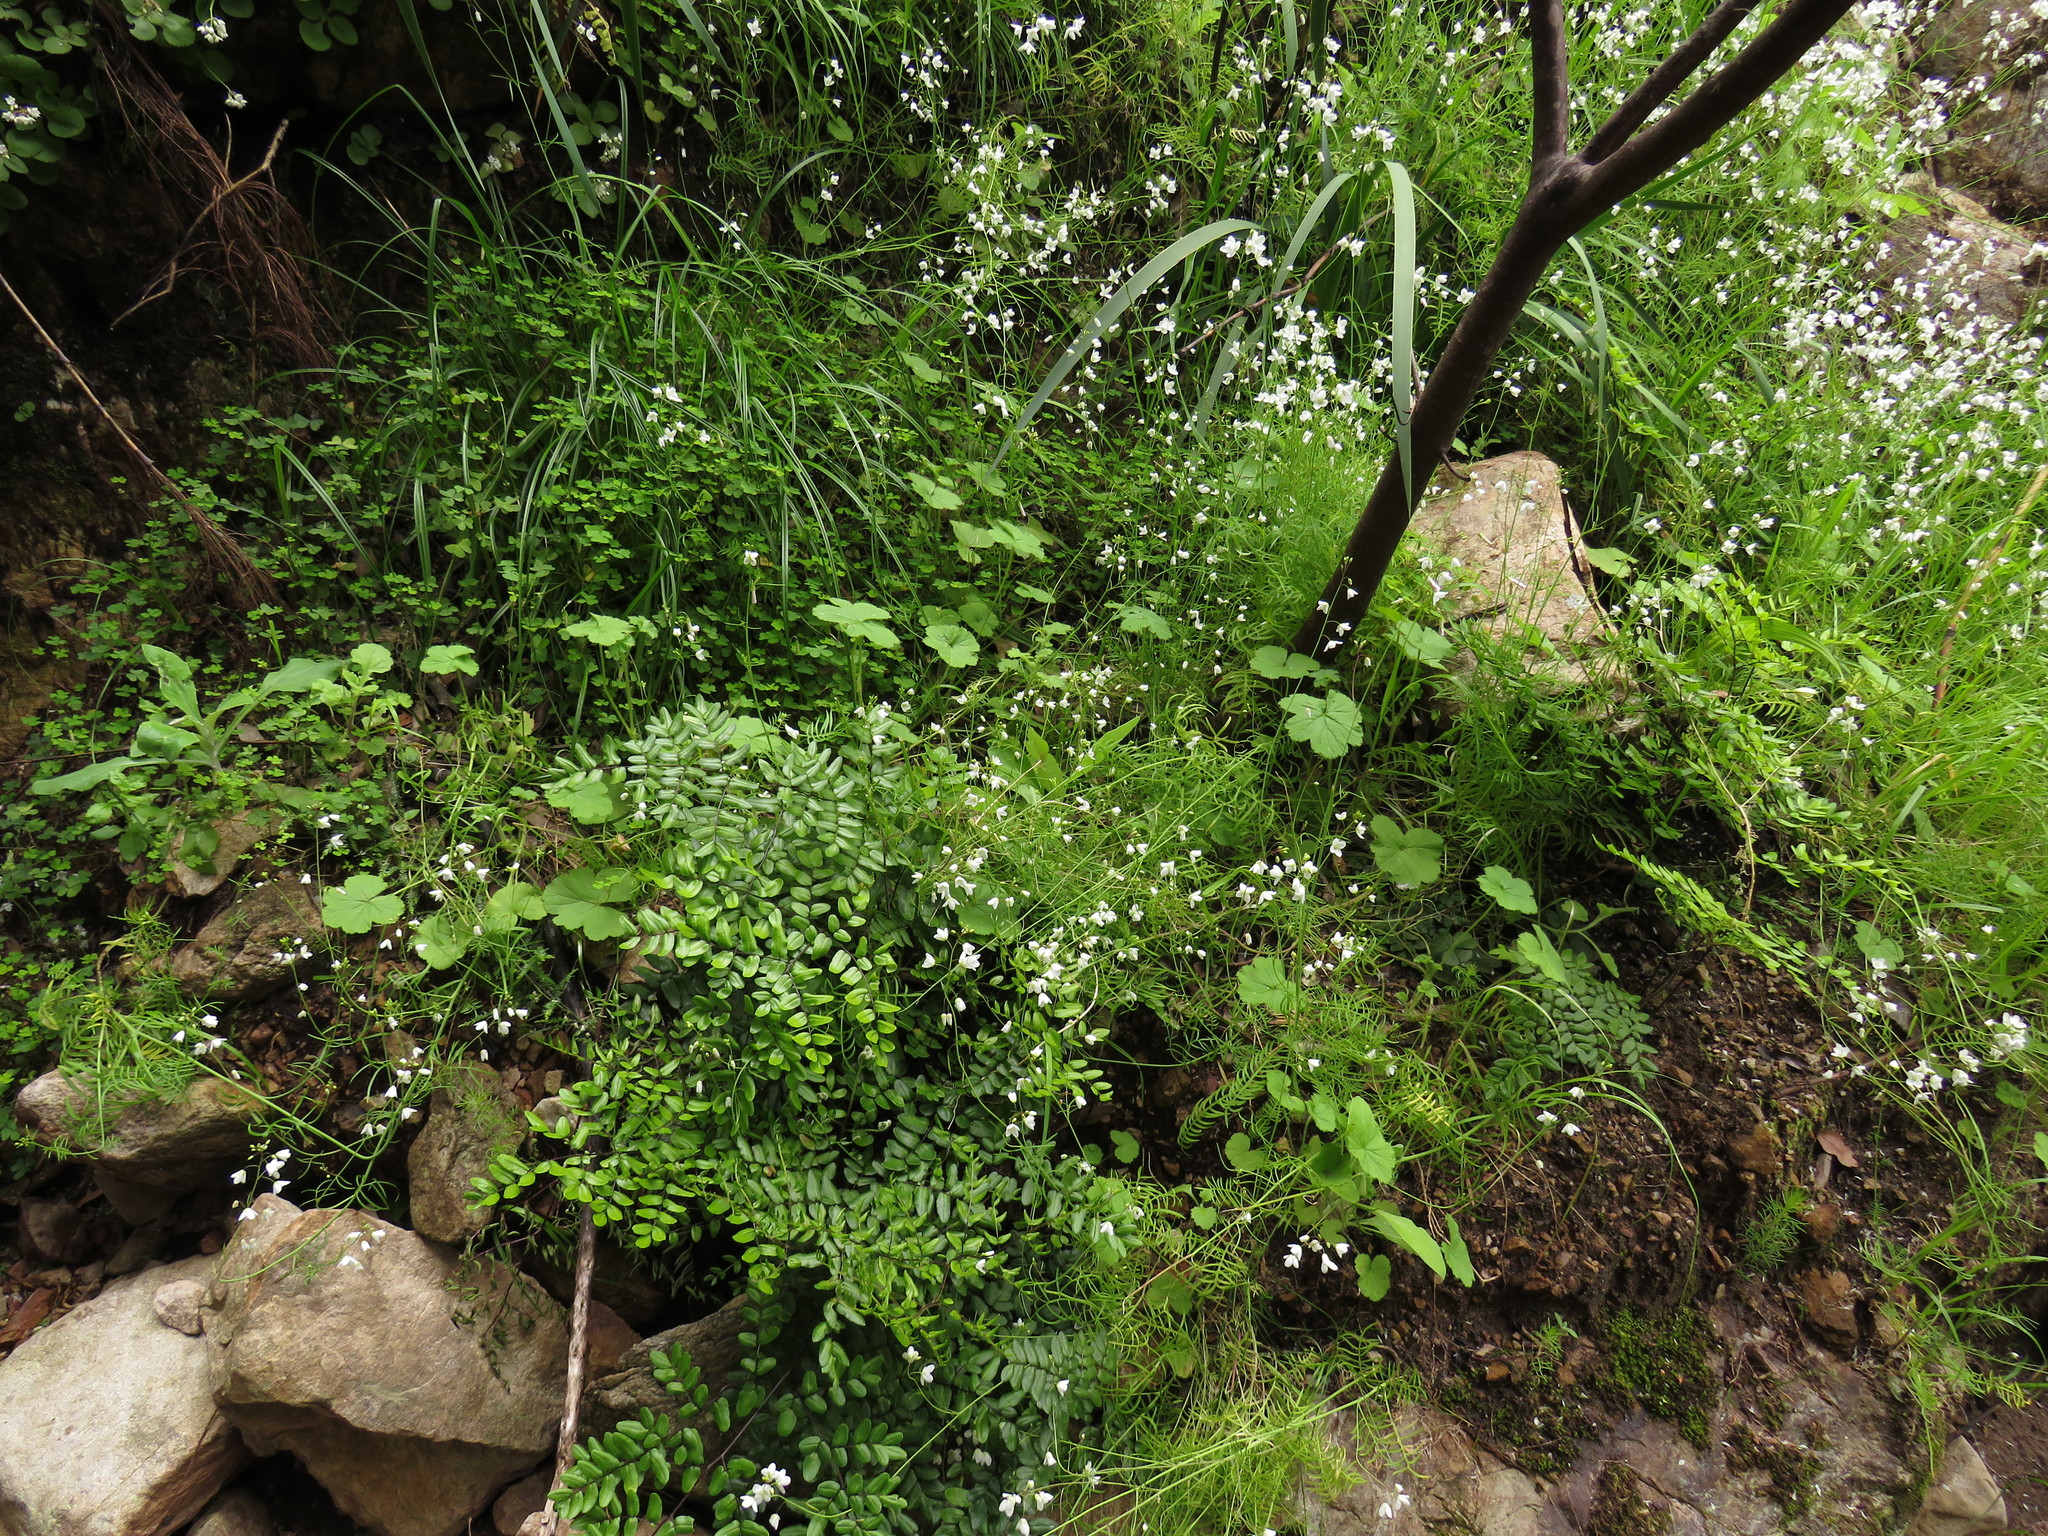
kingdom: Plantae
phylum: Tracheophyta
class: Magnoliopsida
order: Geraniales
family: Geraniaceae
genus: Pelargonium
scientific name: Pelargonium elongatum
